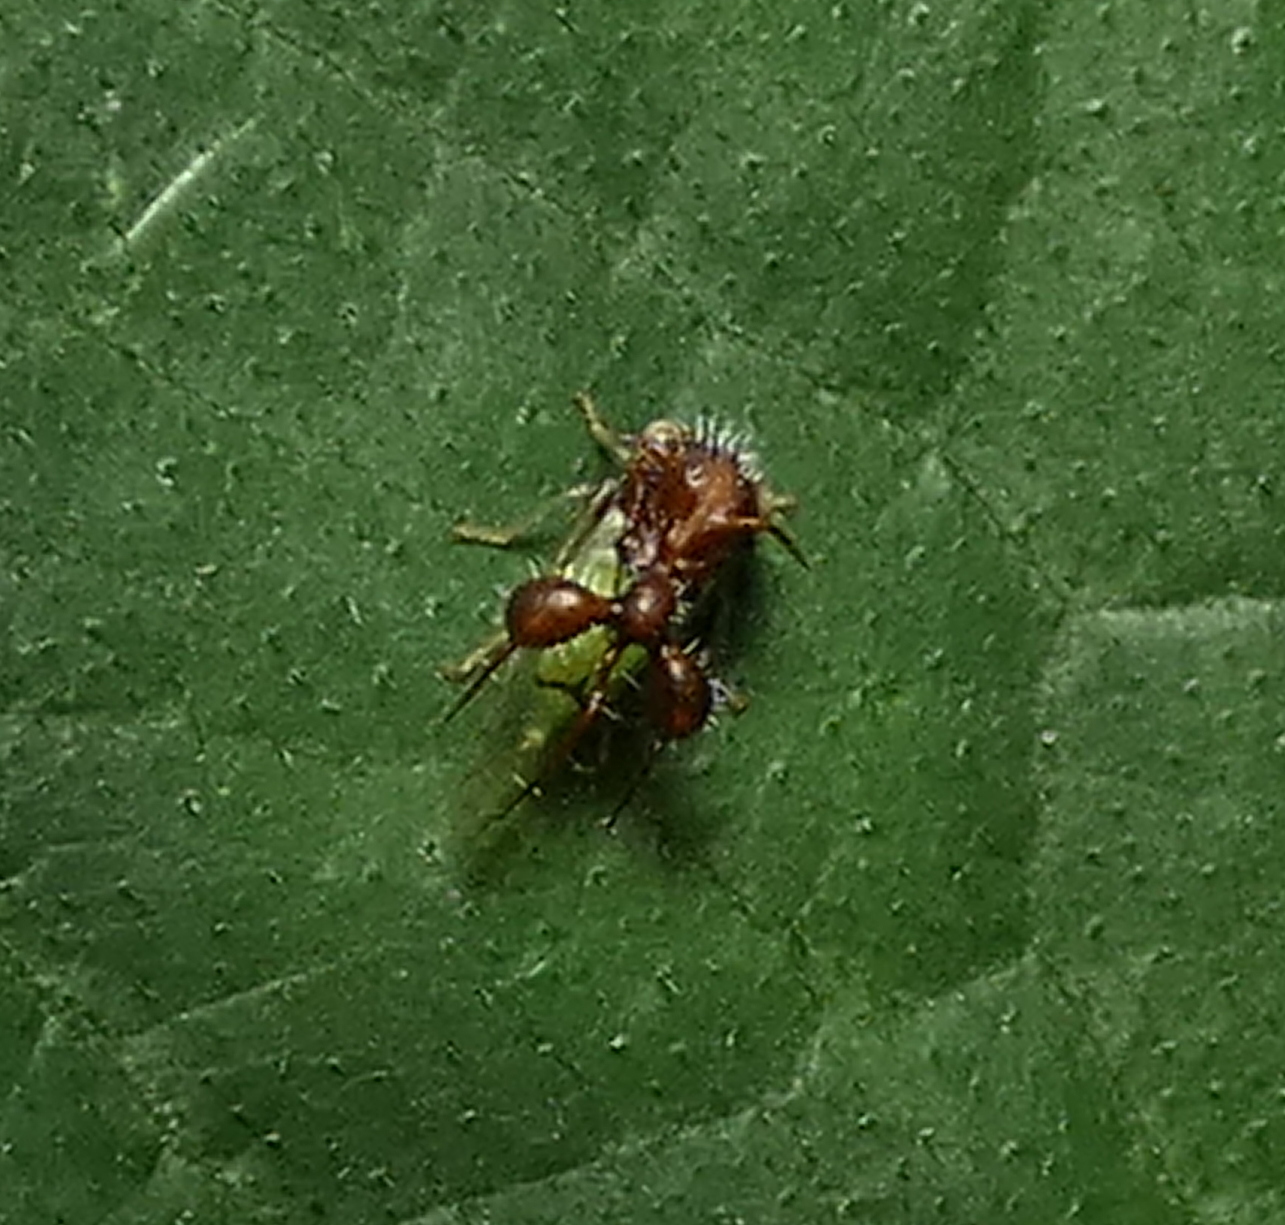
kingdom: Animalia
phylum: Arthropoda
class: Insecta
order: Hemiptera
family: Membracidae
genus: Cyphonia
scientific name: Cyphonia clavata
